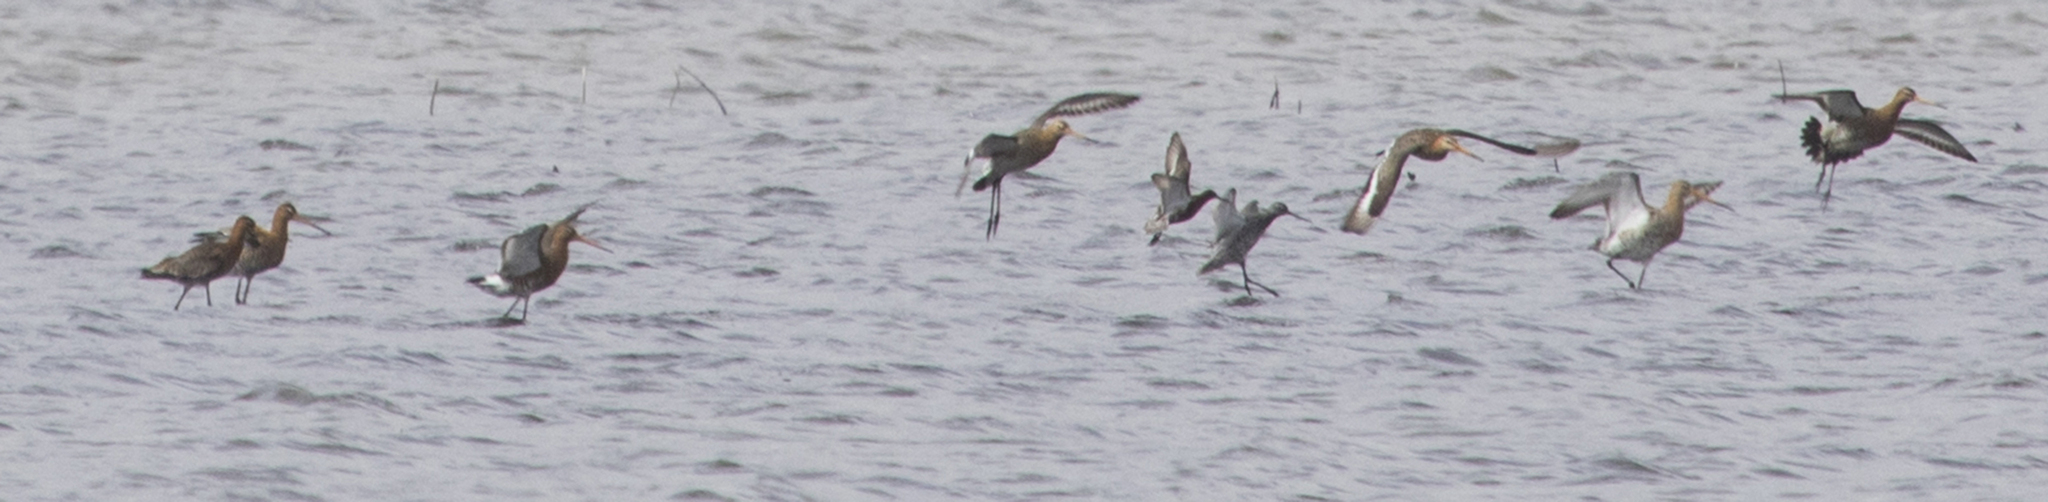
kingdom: Animalia
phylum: Chordata
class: Aves
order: Charadriiformes
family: Scolopacidae
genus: Limosa
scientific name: Limosa limosa
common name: Black-tailed godwit
